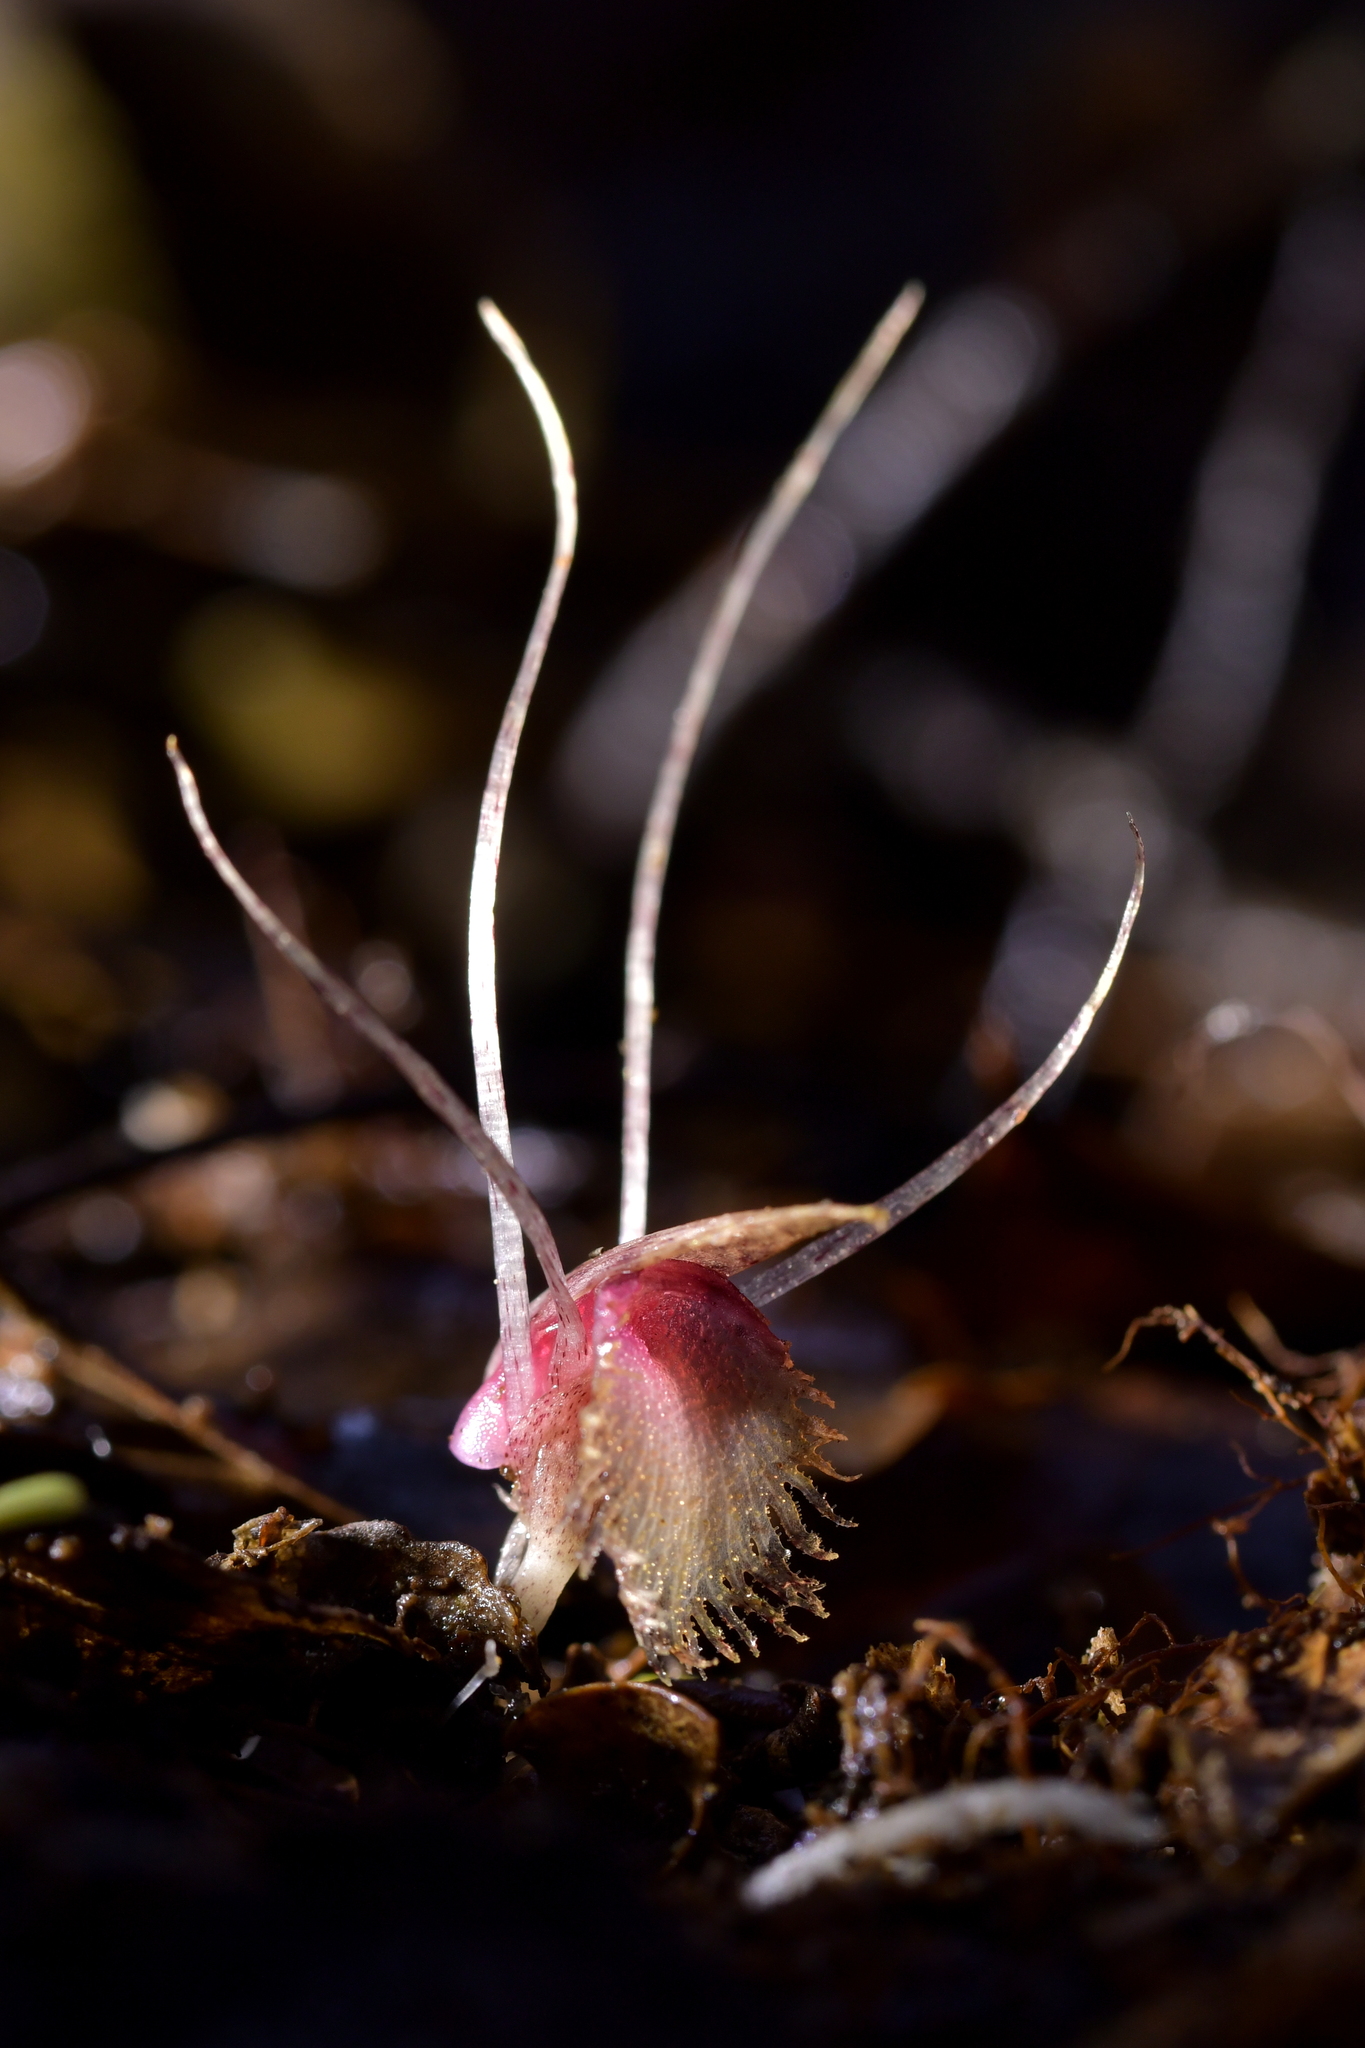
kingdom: Plantae
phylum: Tracheophyta
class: Liliopsida
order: Asparagales
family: Orchidaceae
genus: Corybas
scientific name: Corybas cryptanthus
